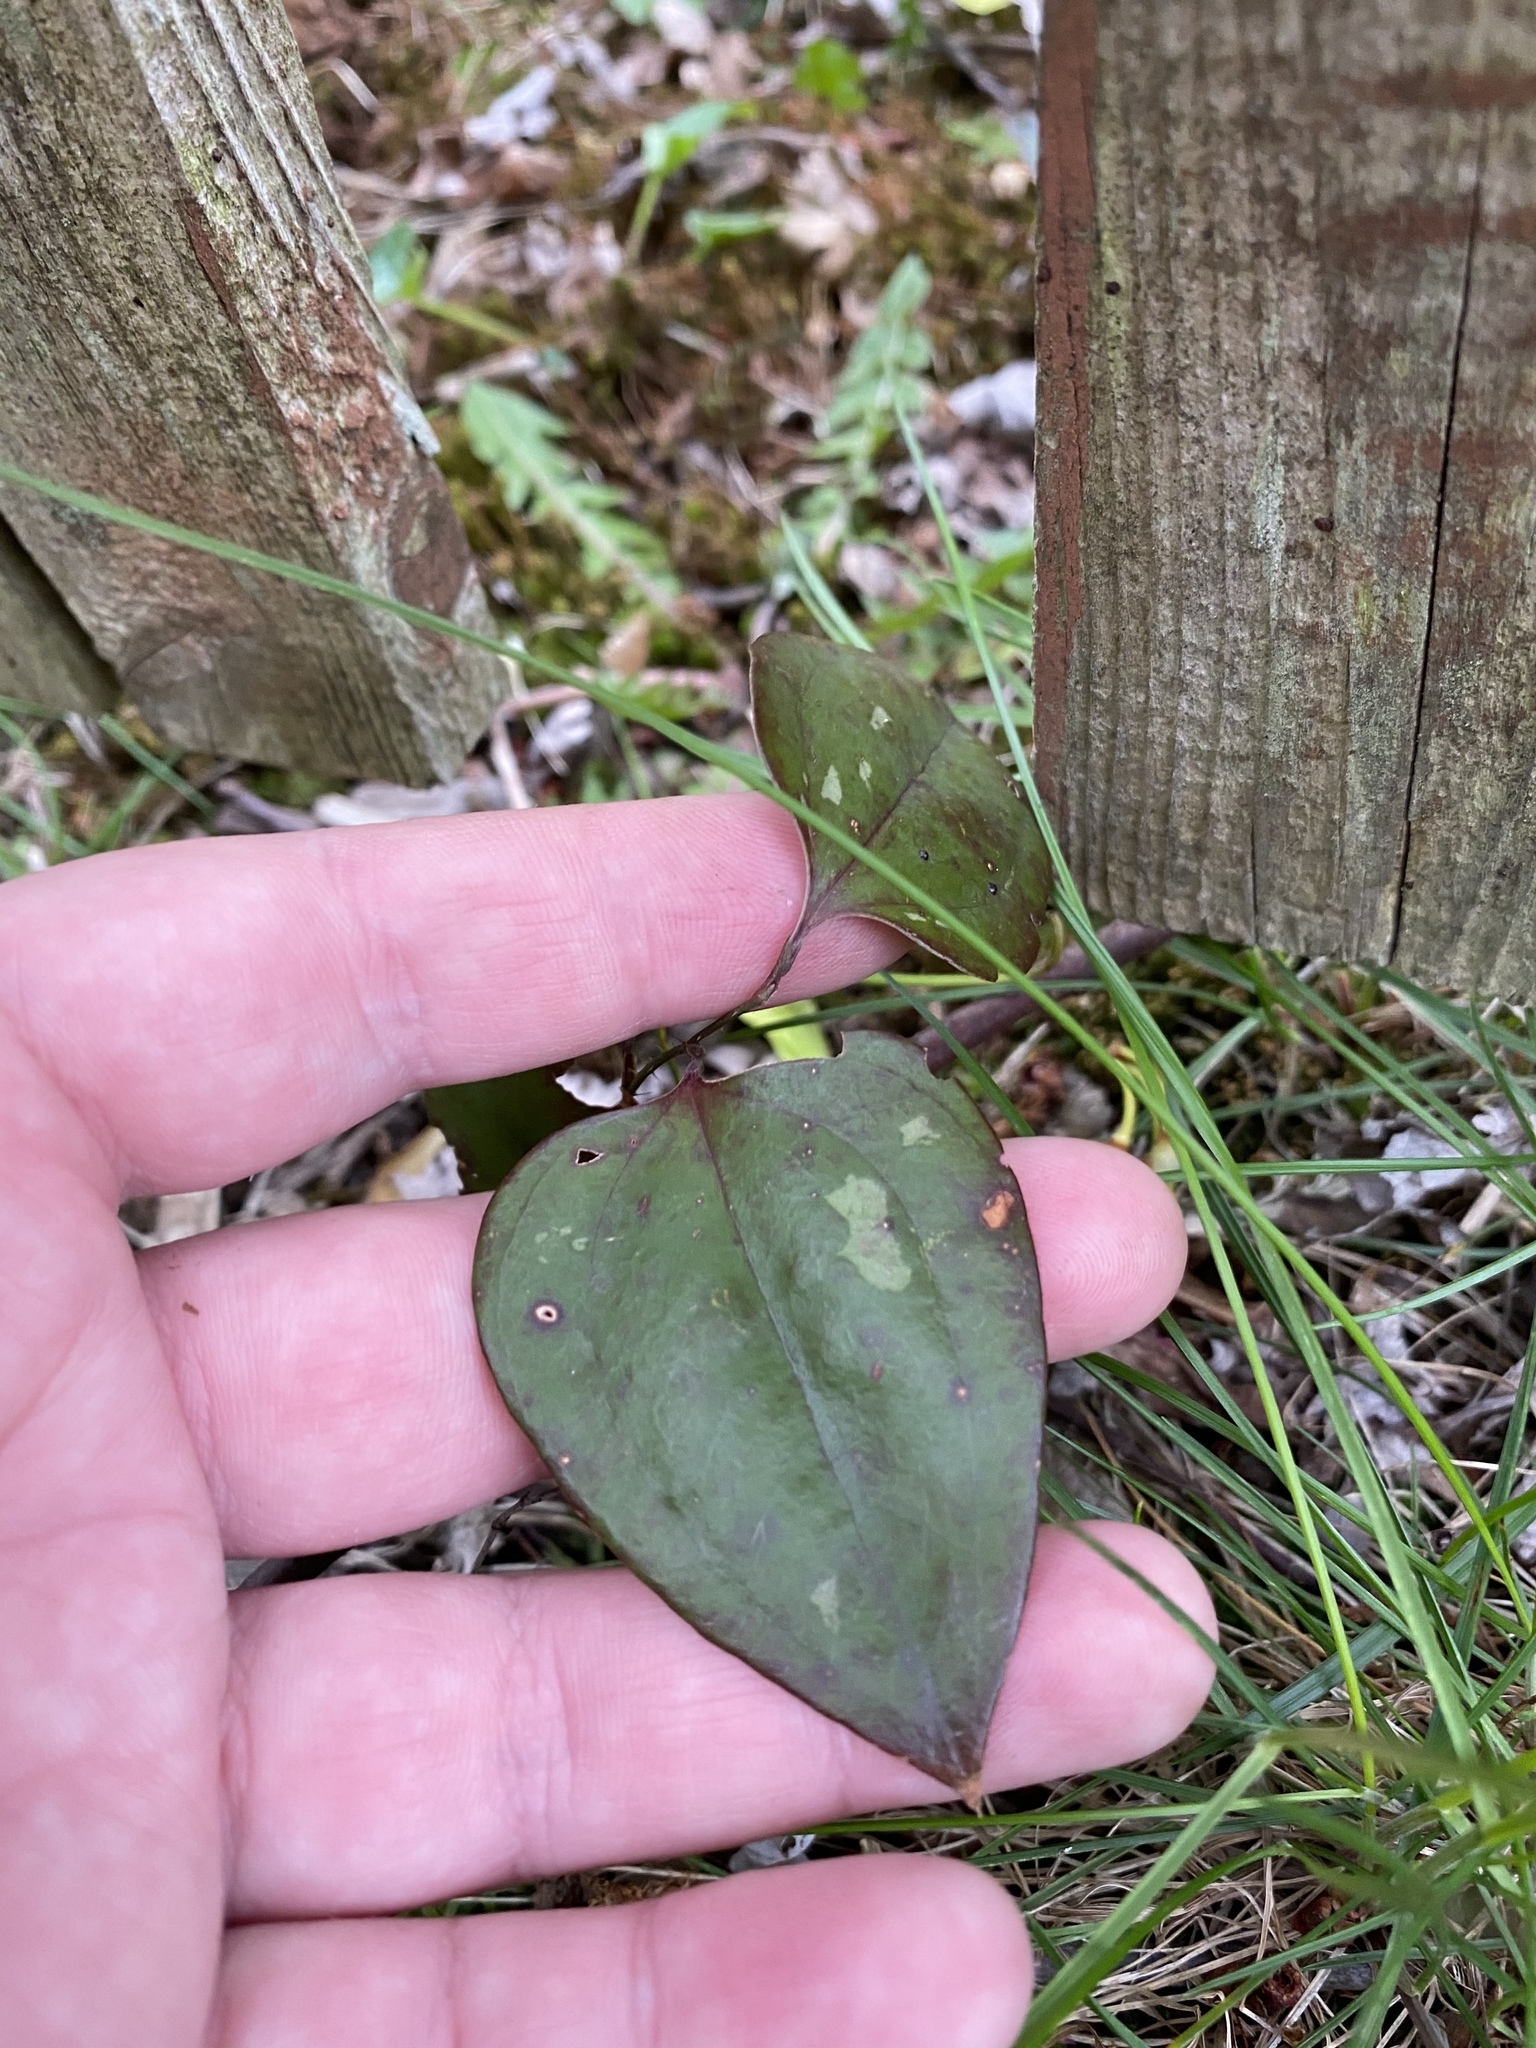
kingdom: Plantae
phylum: Tracheophyta
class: Liliopsida
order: Liliales
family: Smilacaceae
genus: Smilax
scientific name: Smilax glauca
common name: Cat greenbrier
